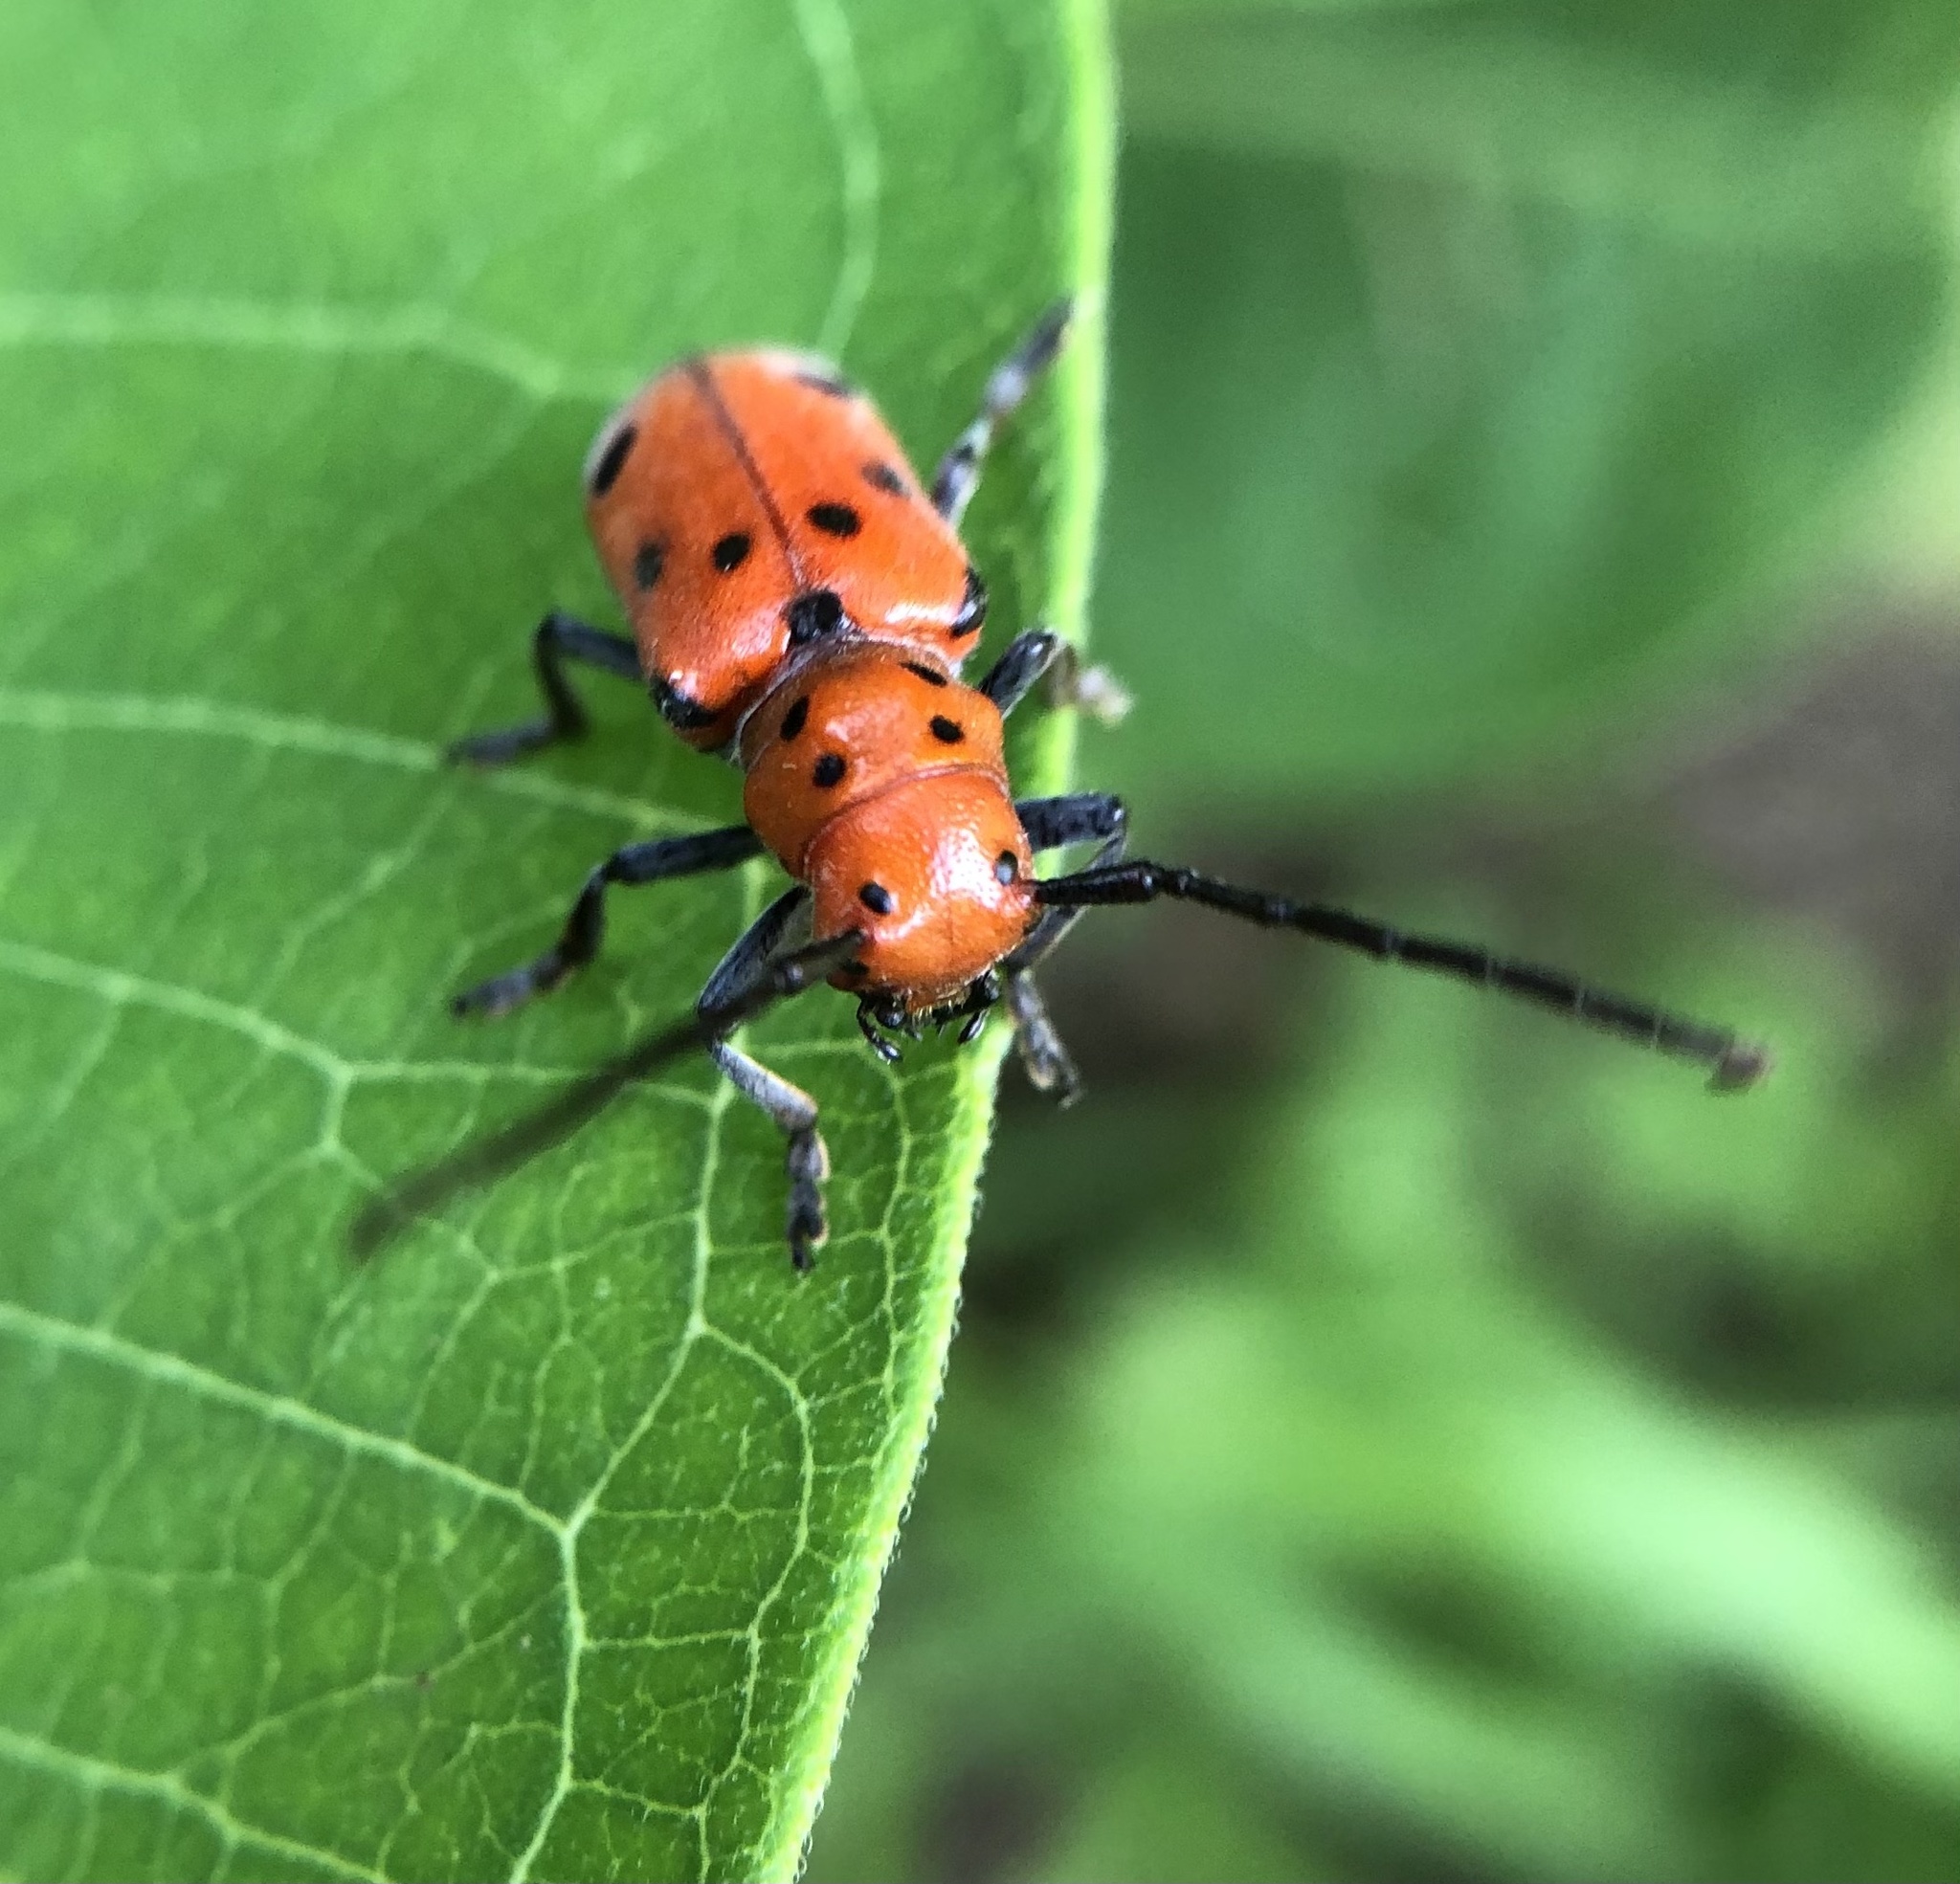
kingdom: Animalia
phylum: Arthropoda
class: Insecta
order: Coleoptera
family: Cerambycidae
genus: Tetraopes
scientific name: Tetraopes tetrophthalmus
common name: Red milkweed beetle
